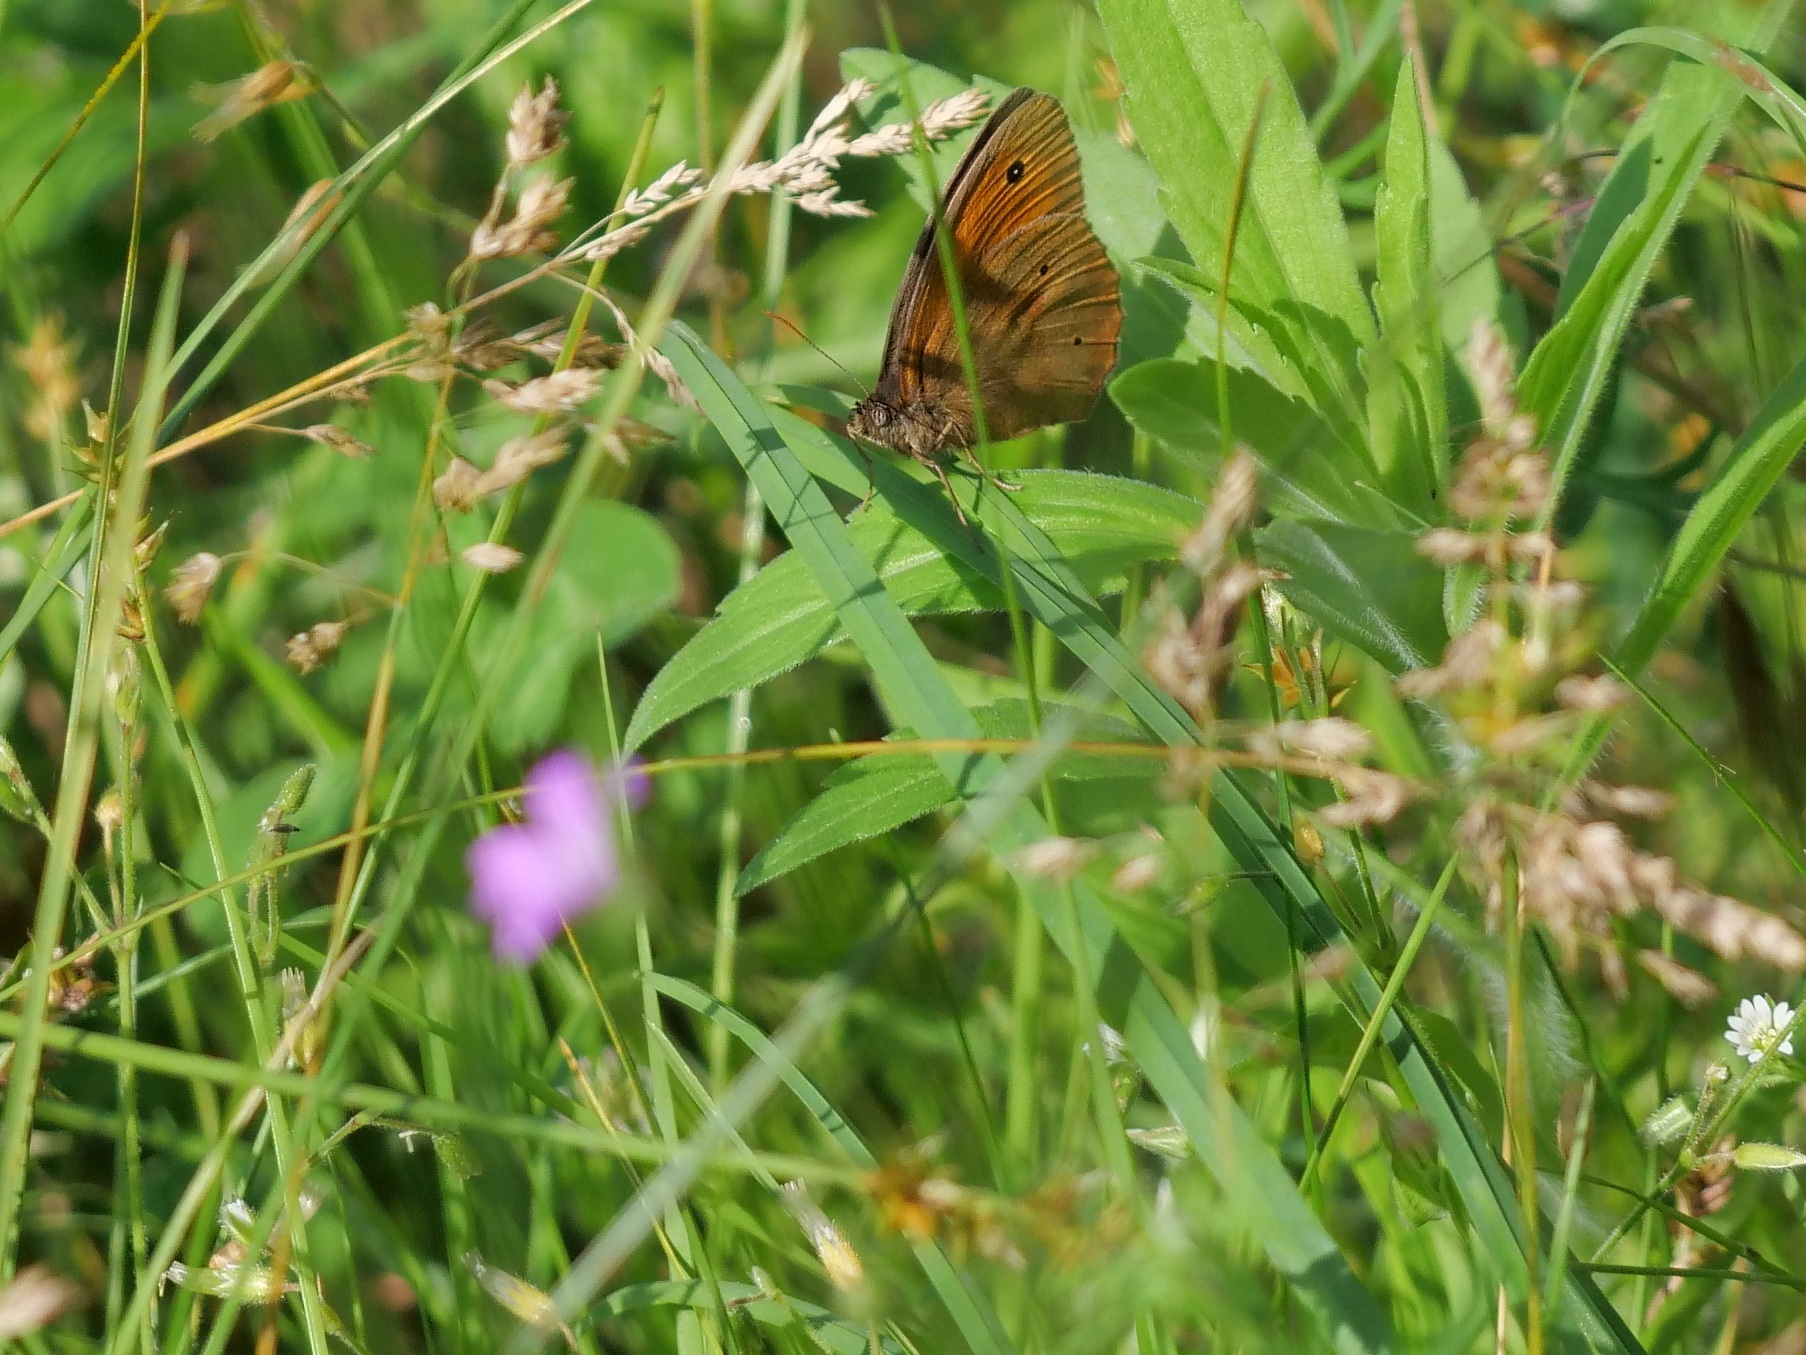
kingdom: Animalia
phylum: Arthropoda
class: Insecta
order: Lepidoptera
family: Nymphalidae
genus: Maniola
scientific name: Maniola jurtina
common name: Meadow brown
